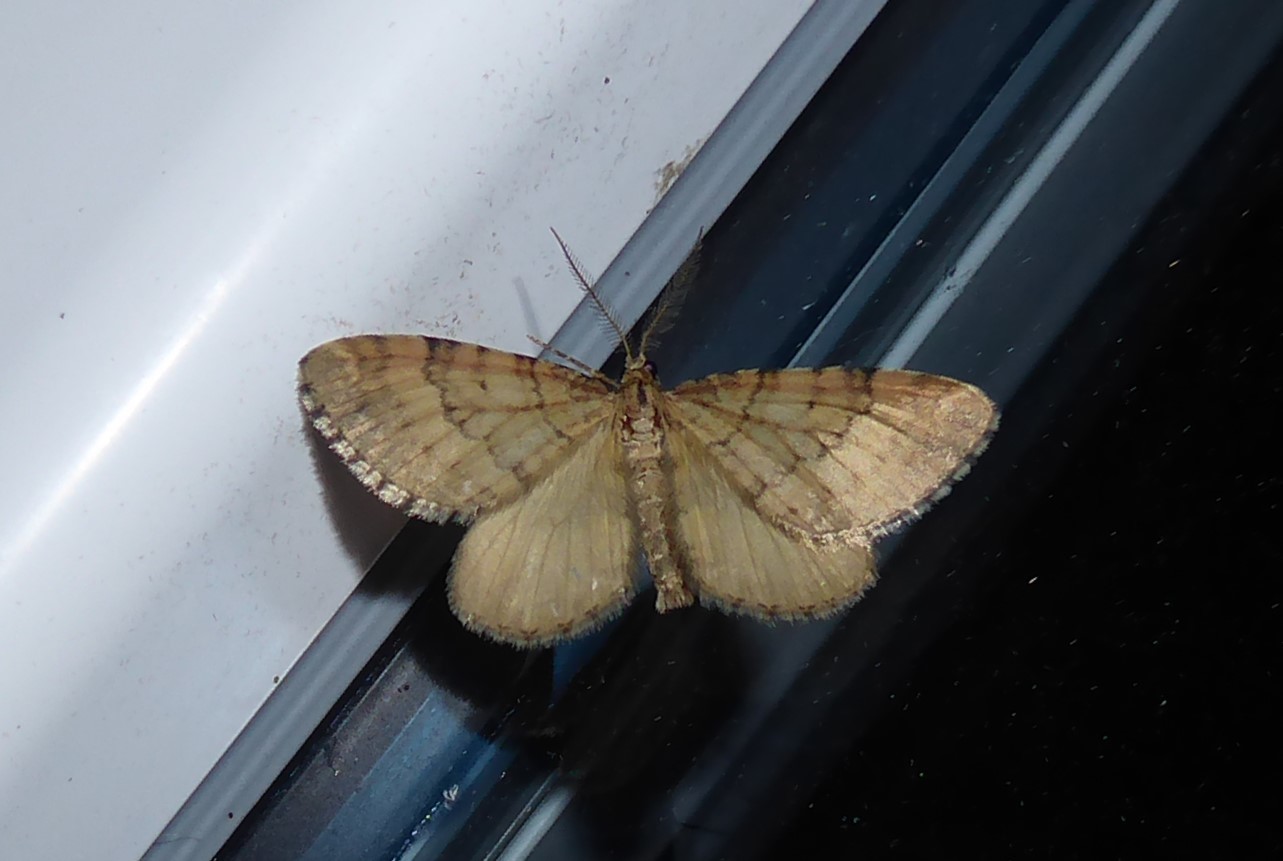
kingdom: Animalia
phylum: Arthropoda
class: Insecta
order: Lepidoptera
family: Geometridae
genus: Asaphodes
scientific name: Asaphodes aegrota
